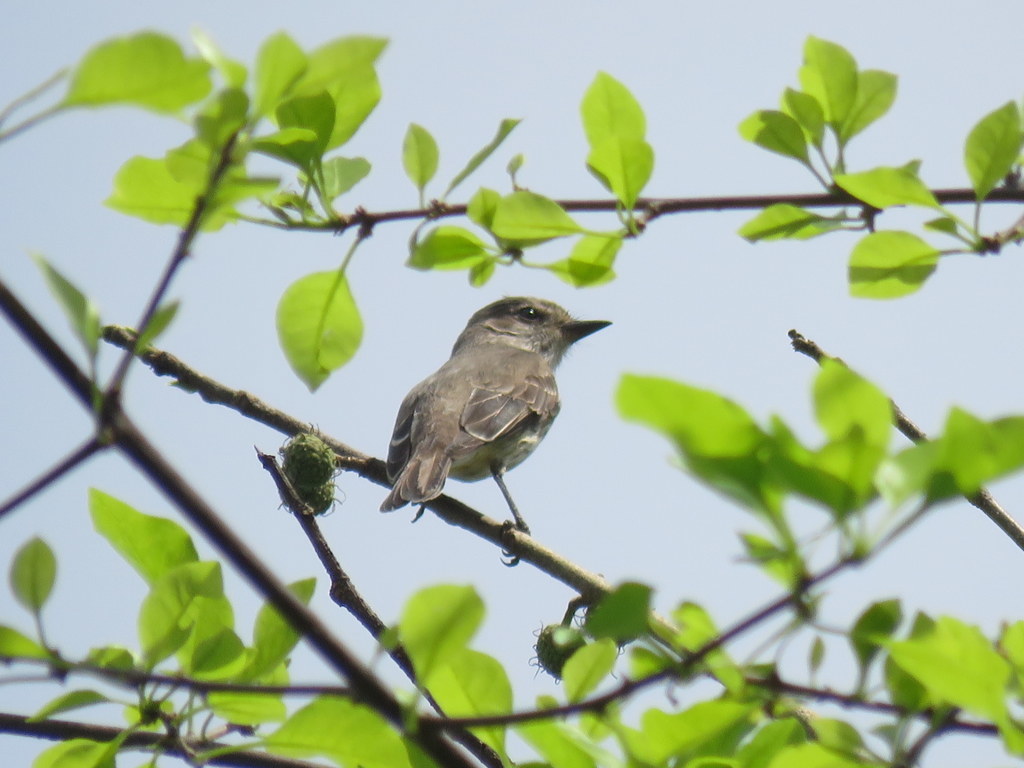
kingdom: Animalia
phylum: Chordata
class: Aves
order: Passeriformes
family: Tyrannidae
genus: Pyrocephalus
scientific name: Pyrocephalus rubinus
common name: Vermilion flycatcher
